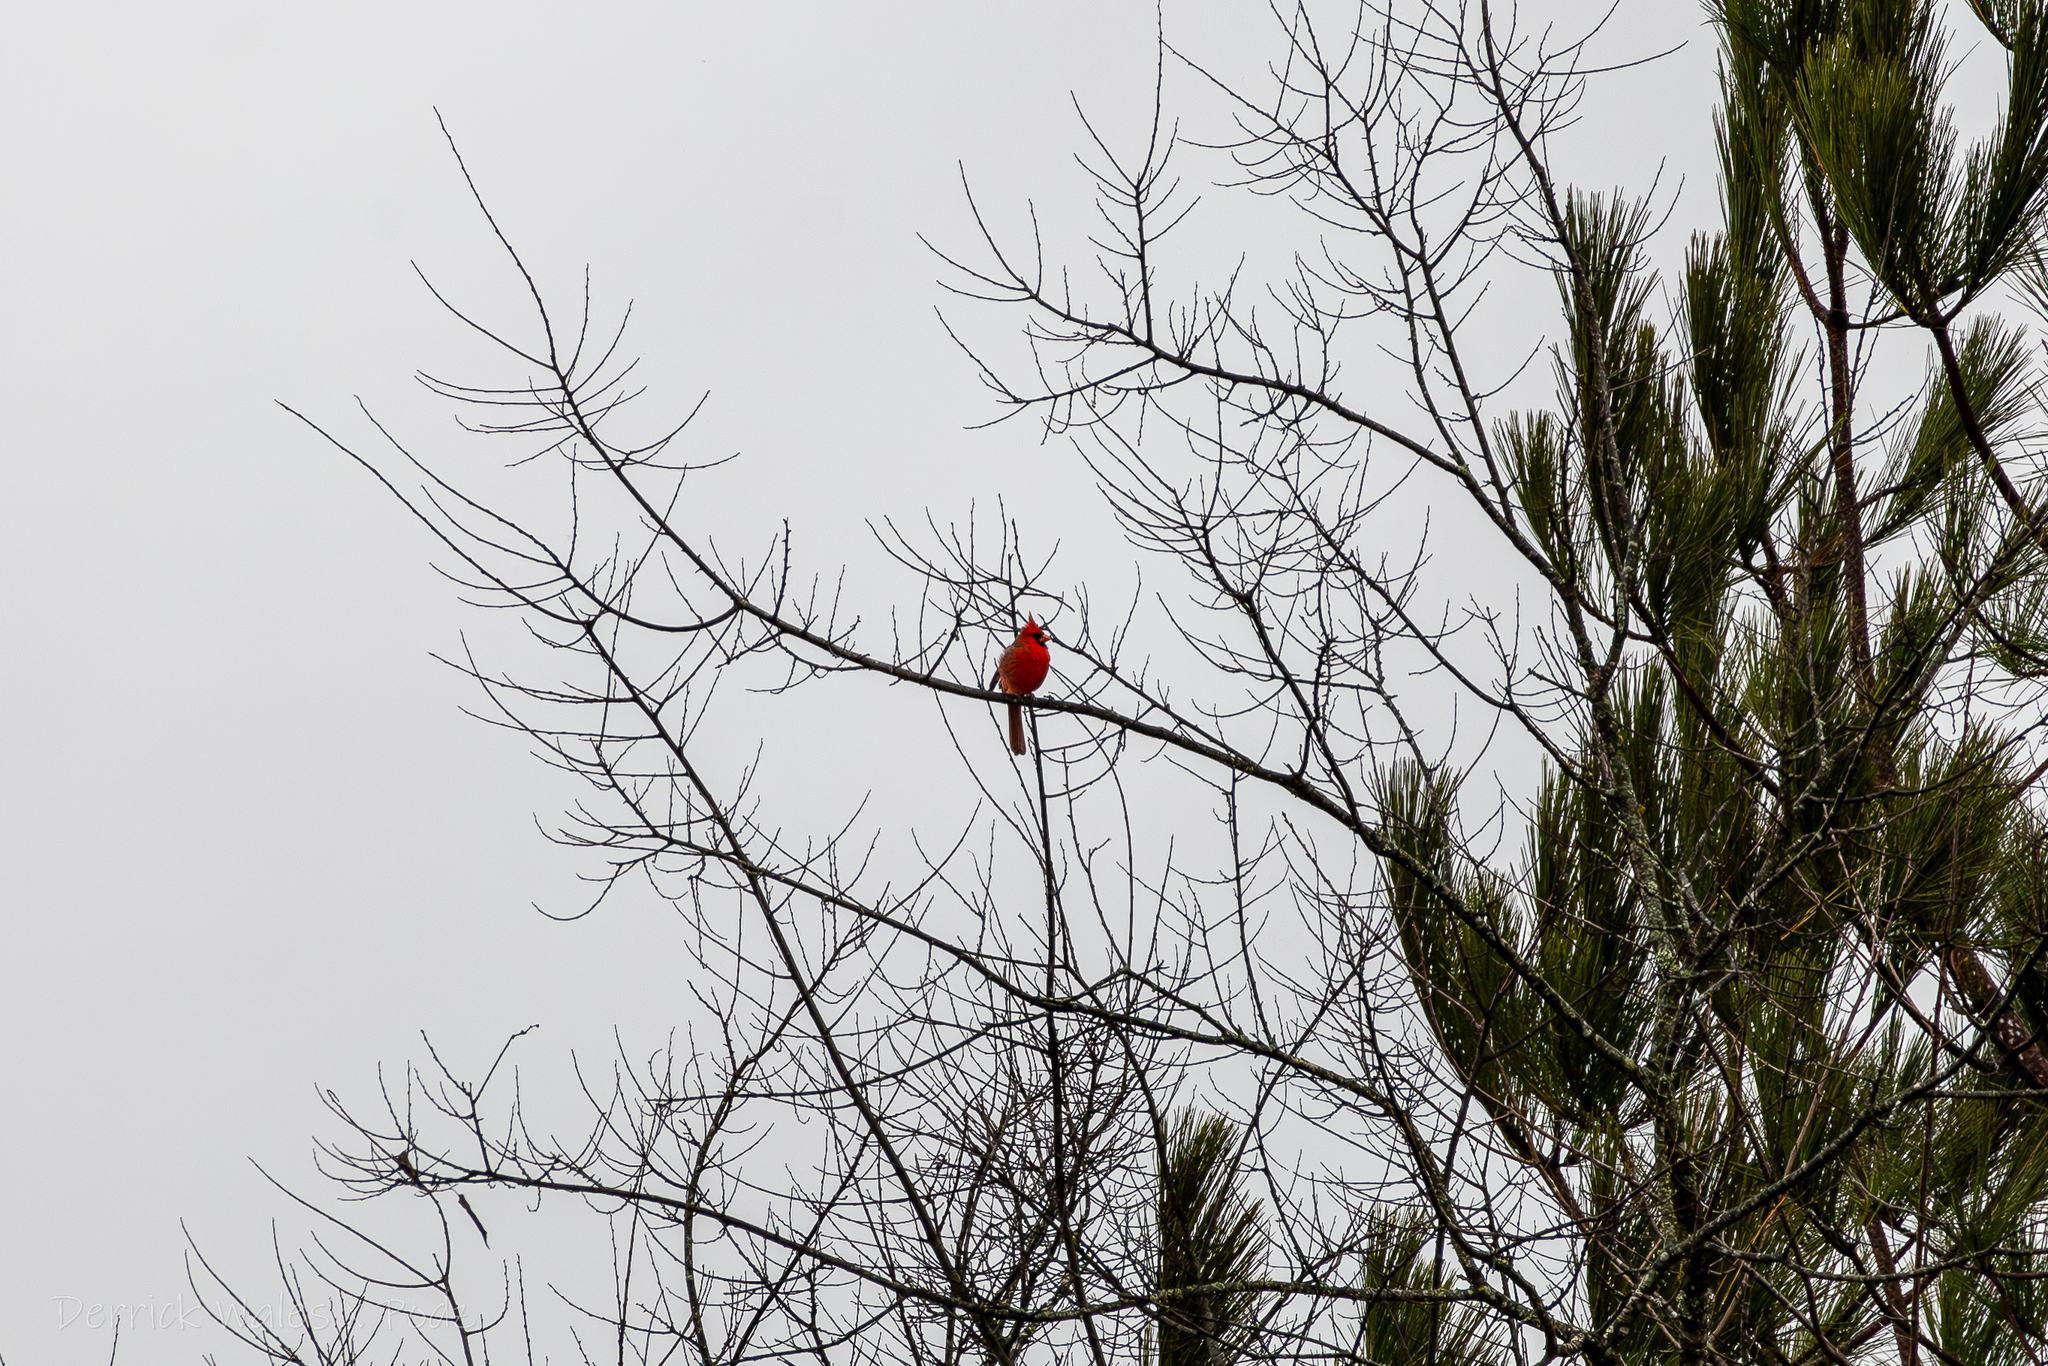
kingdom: Animalia
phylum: Chordata
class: Aves
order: Passeriformes
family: Cardinalidae
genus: Cardinalis
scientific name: Cardinalis cardinalis
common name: Northern cardinal
